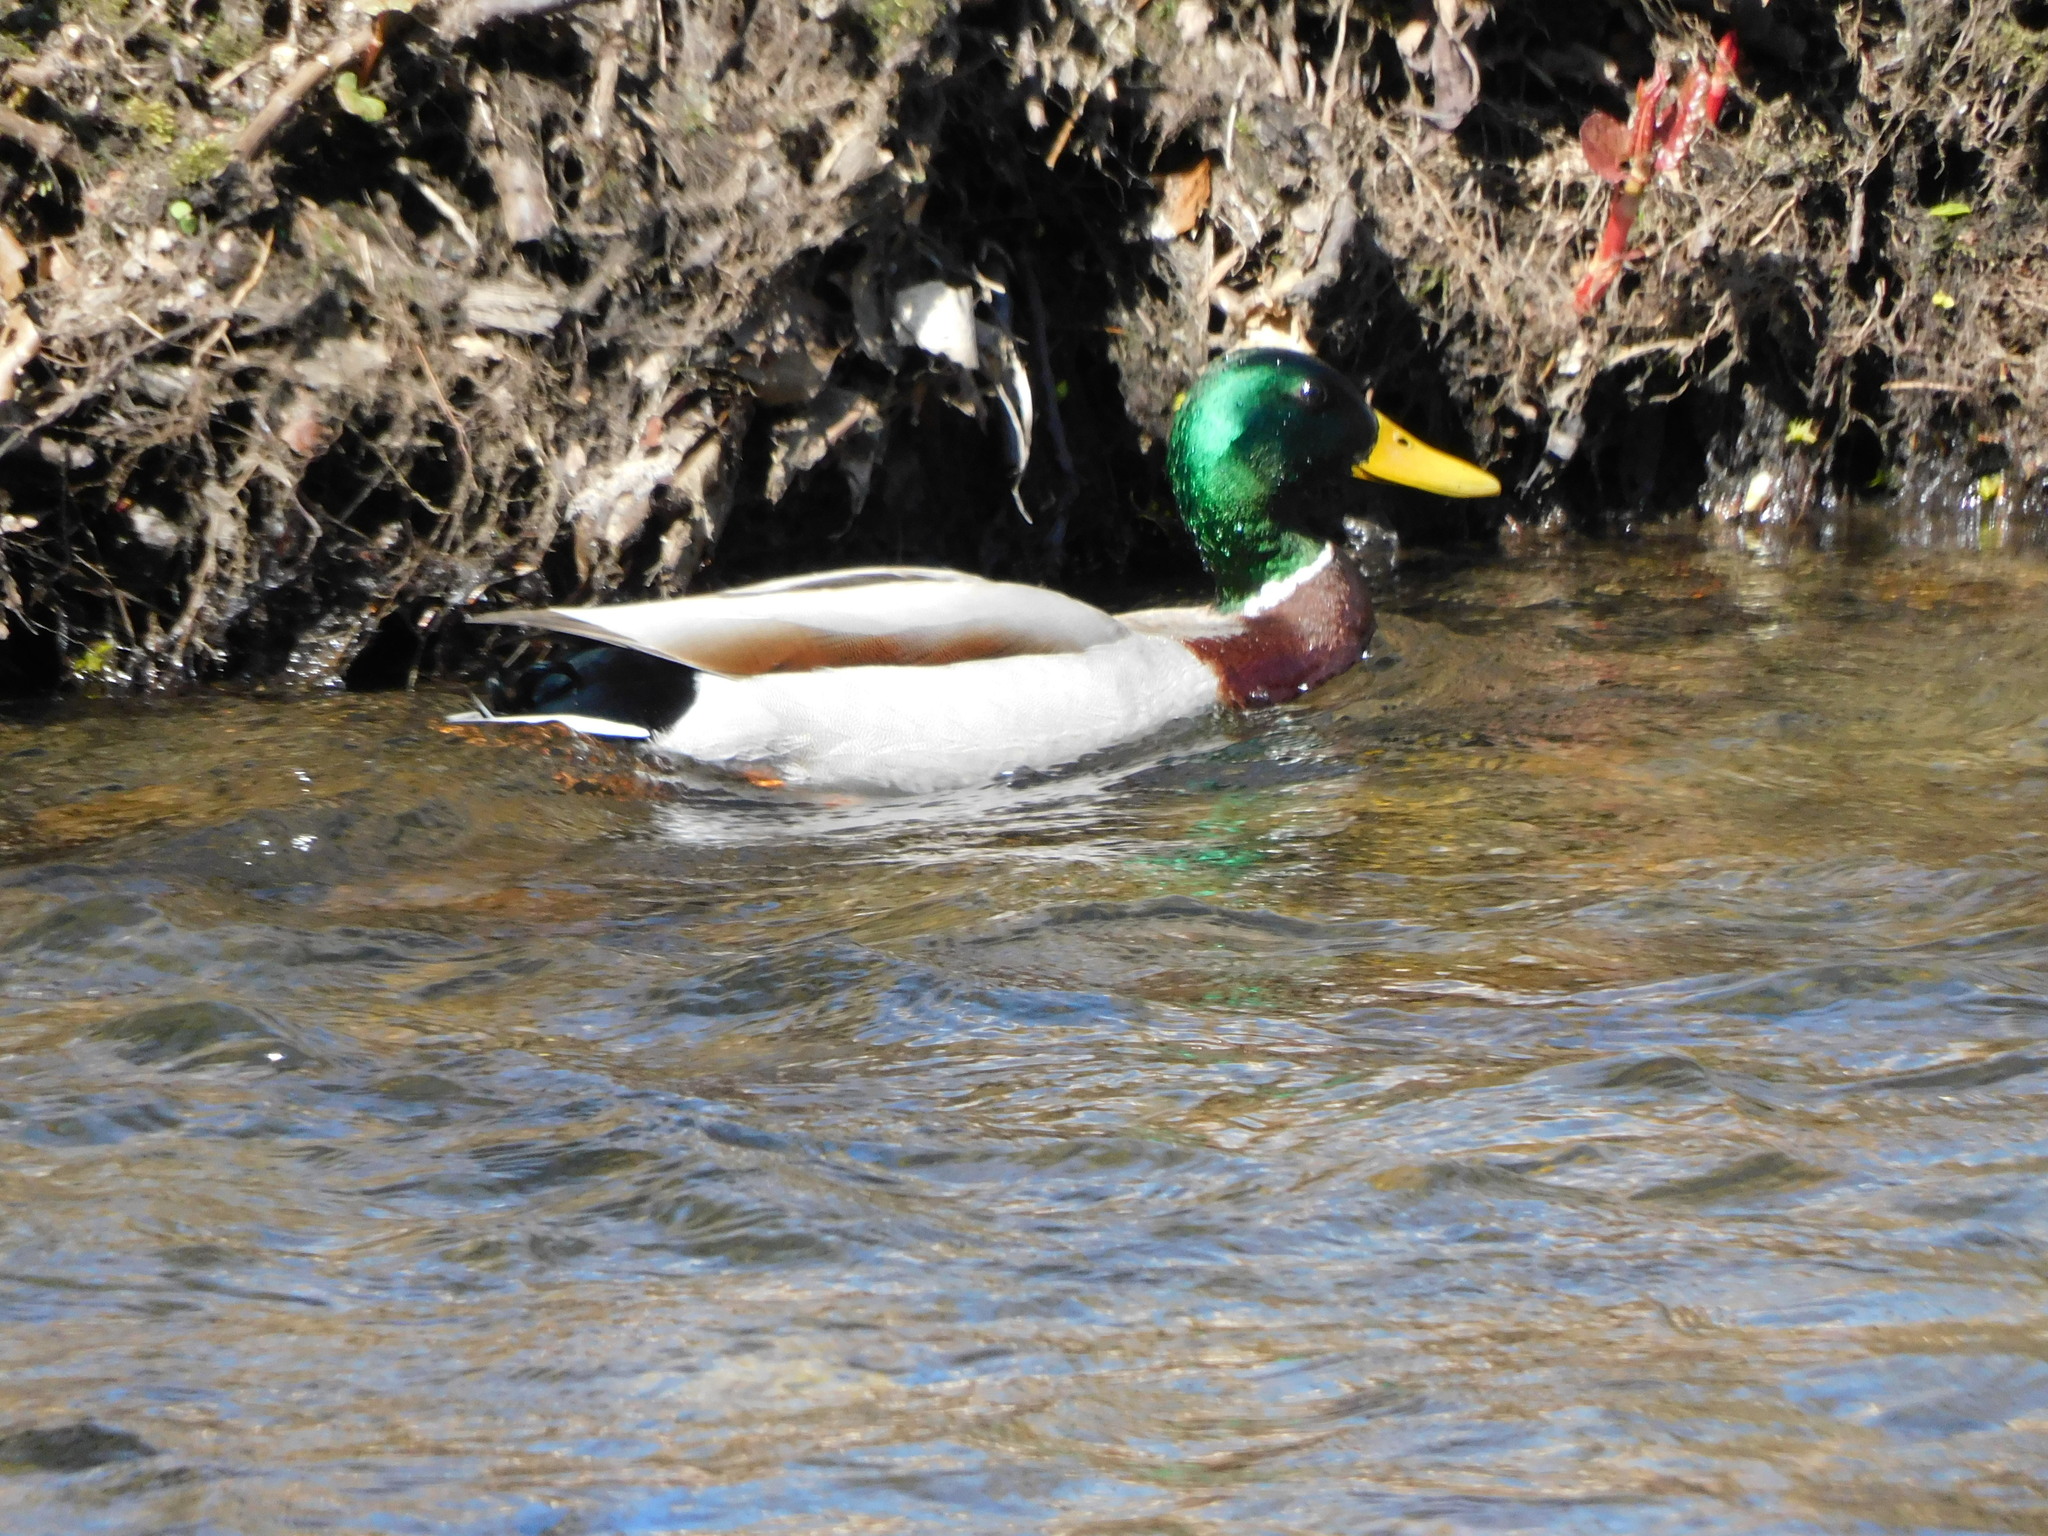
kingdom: Animalia
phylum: Chordata
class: Aves
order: Anseriformes
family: Anatidae
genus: Anas
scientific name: Anas platyrhynchos
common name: Mallard
